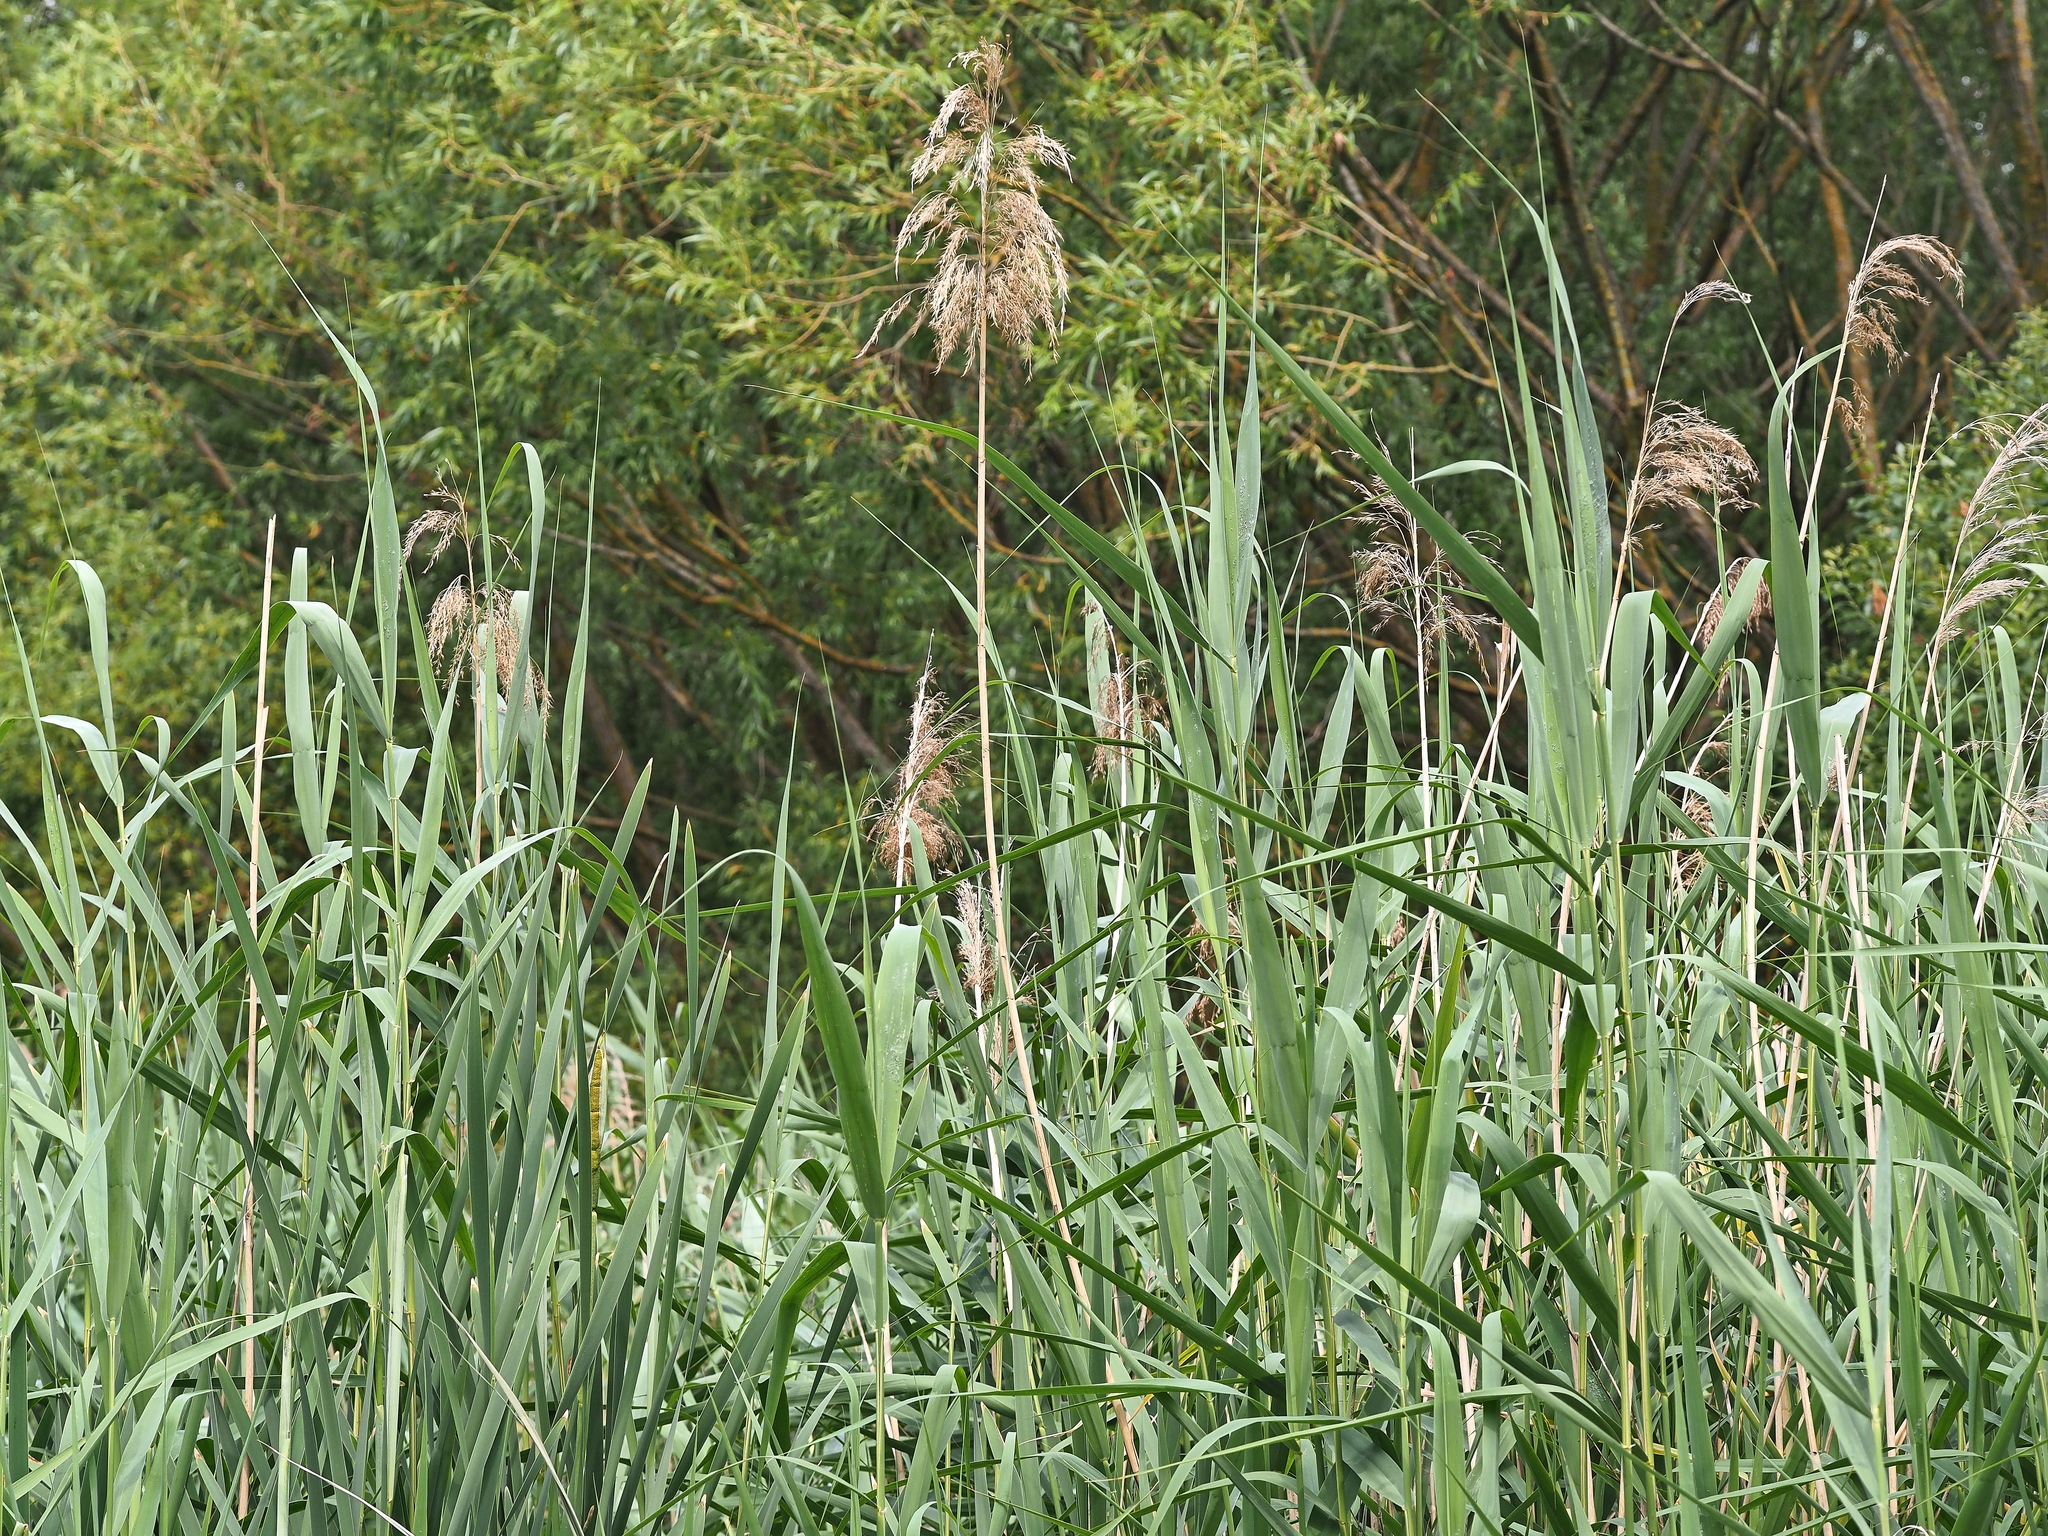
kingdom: Plantae
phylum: Tracheophyta
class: Liliopsida
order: Poales
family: Poaceae
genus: Phragmites
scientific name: Phragmites australis
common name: Common reed
